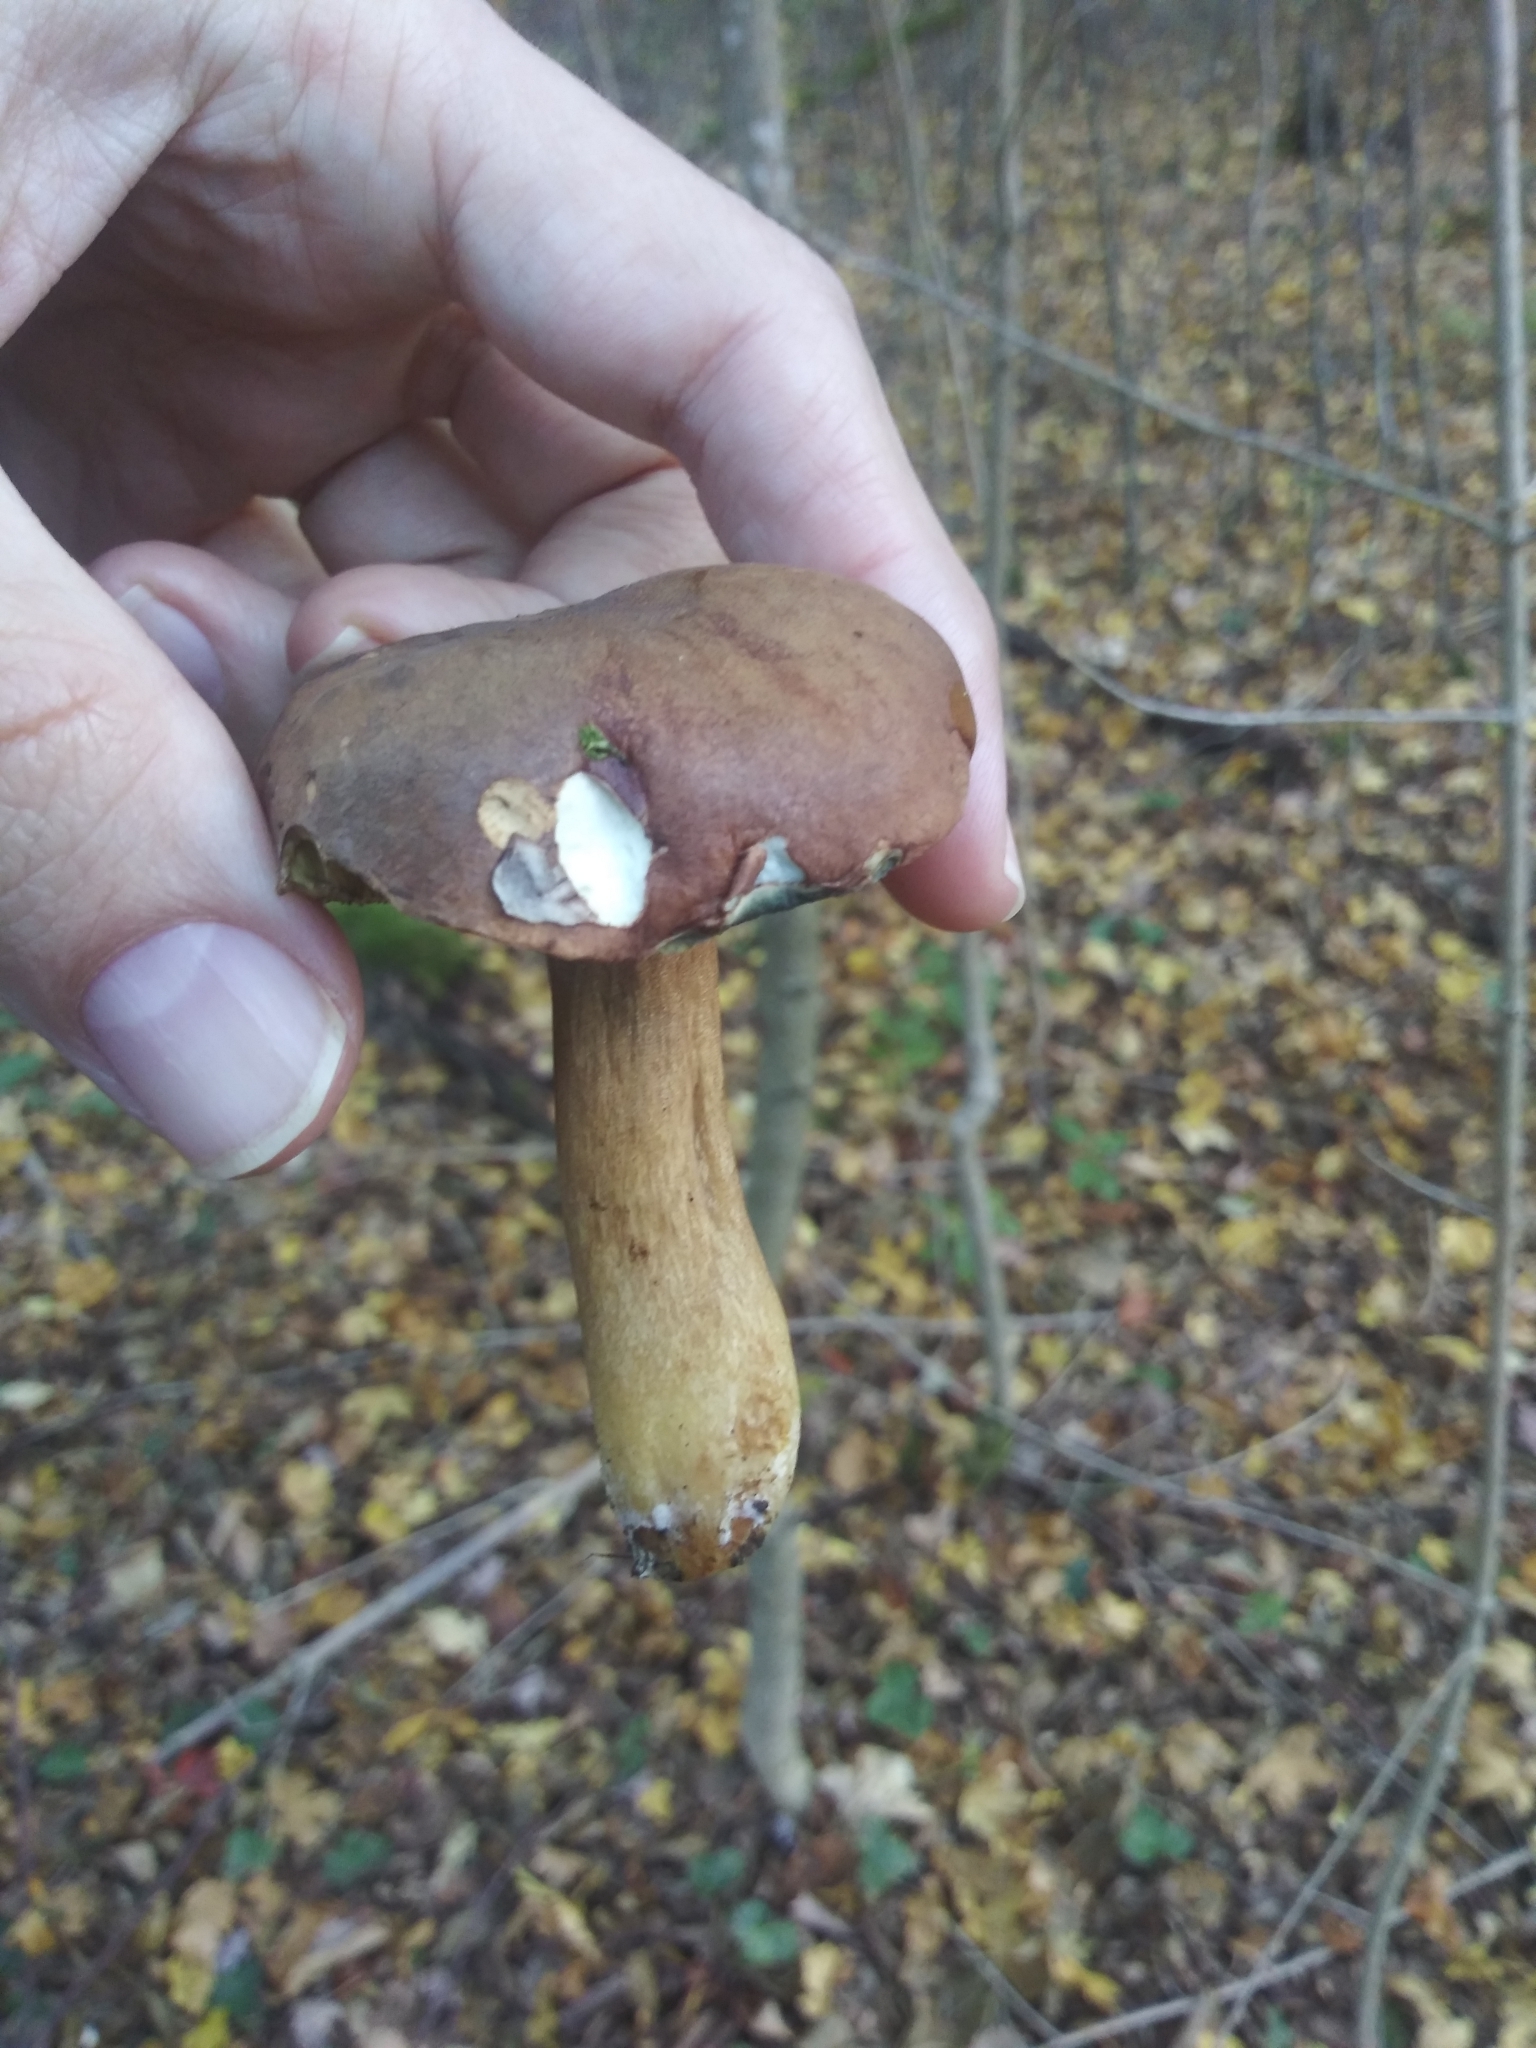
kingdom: Fungi
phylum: Basidiomycota
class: Agaricomycetes
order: Boletales
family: Boletaceae
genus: Imleria
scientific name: Imleria badia
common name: Bay bolete
